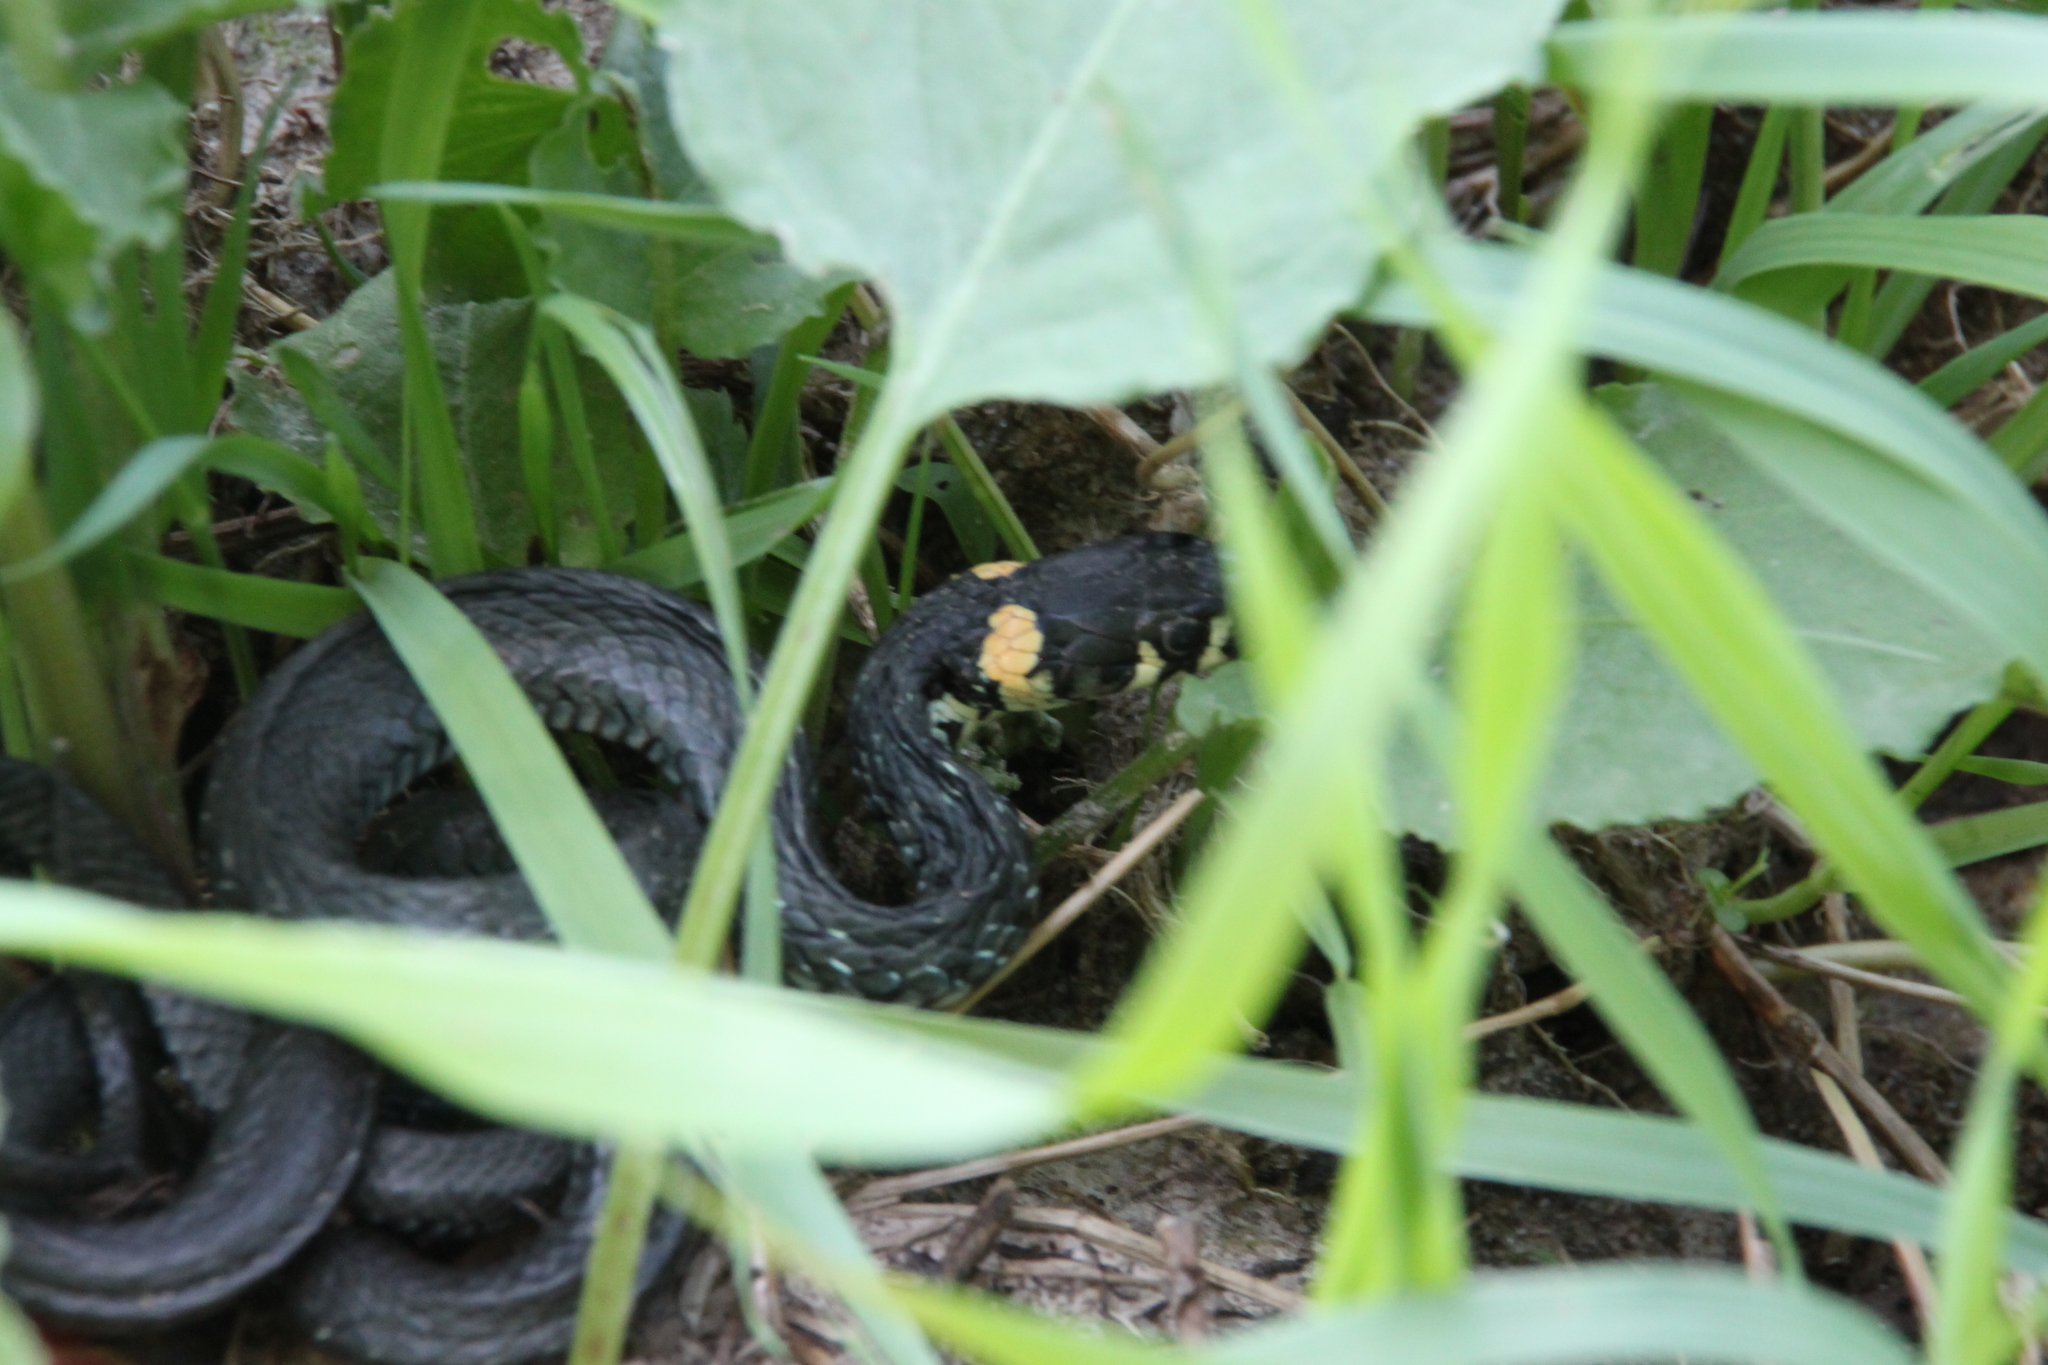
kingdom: Animalia
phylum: Chordata
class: Squamata
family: Colubridae
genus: Natrix
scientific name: Natrix natrix
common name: Grass snake
